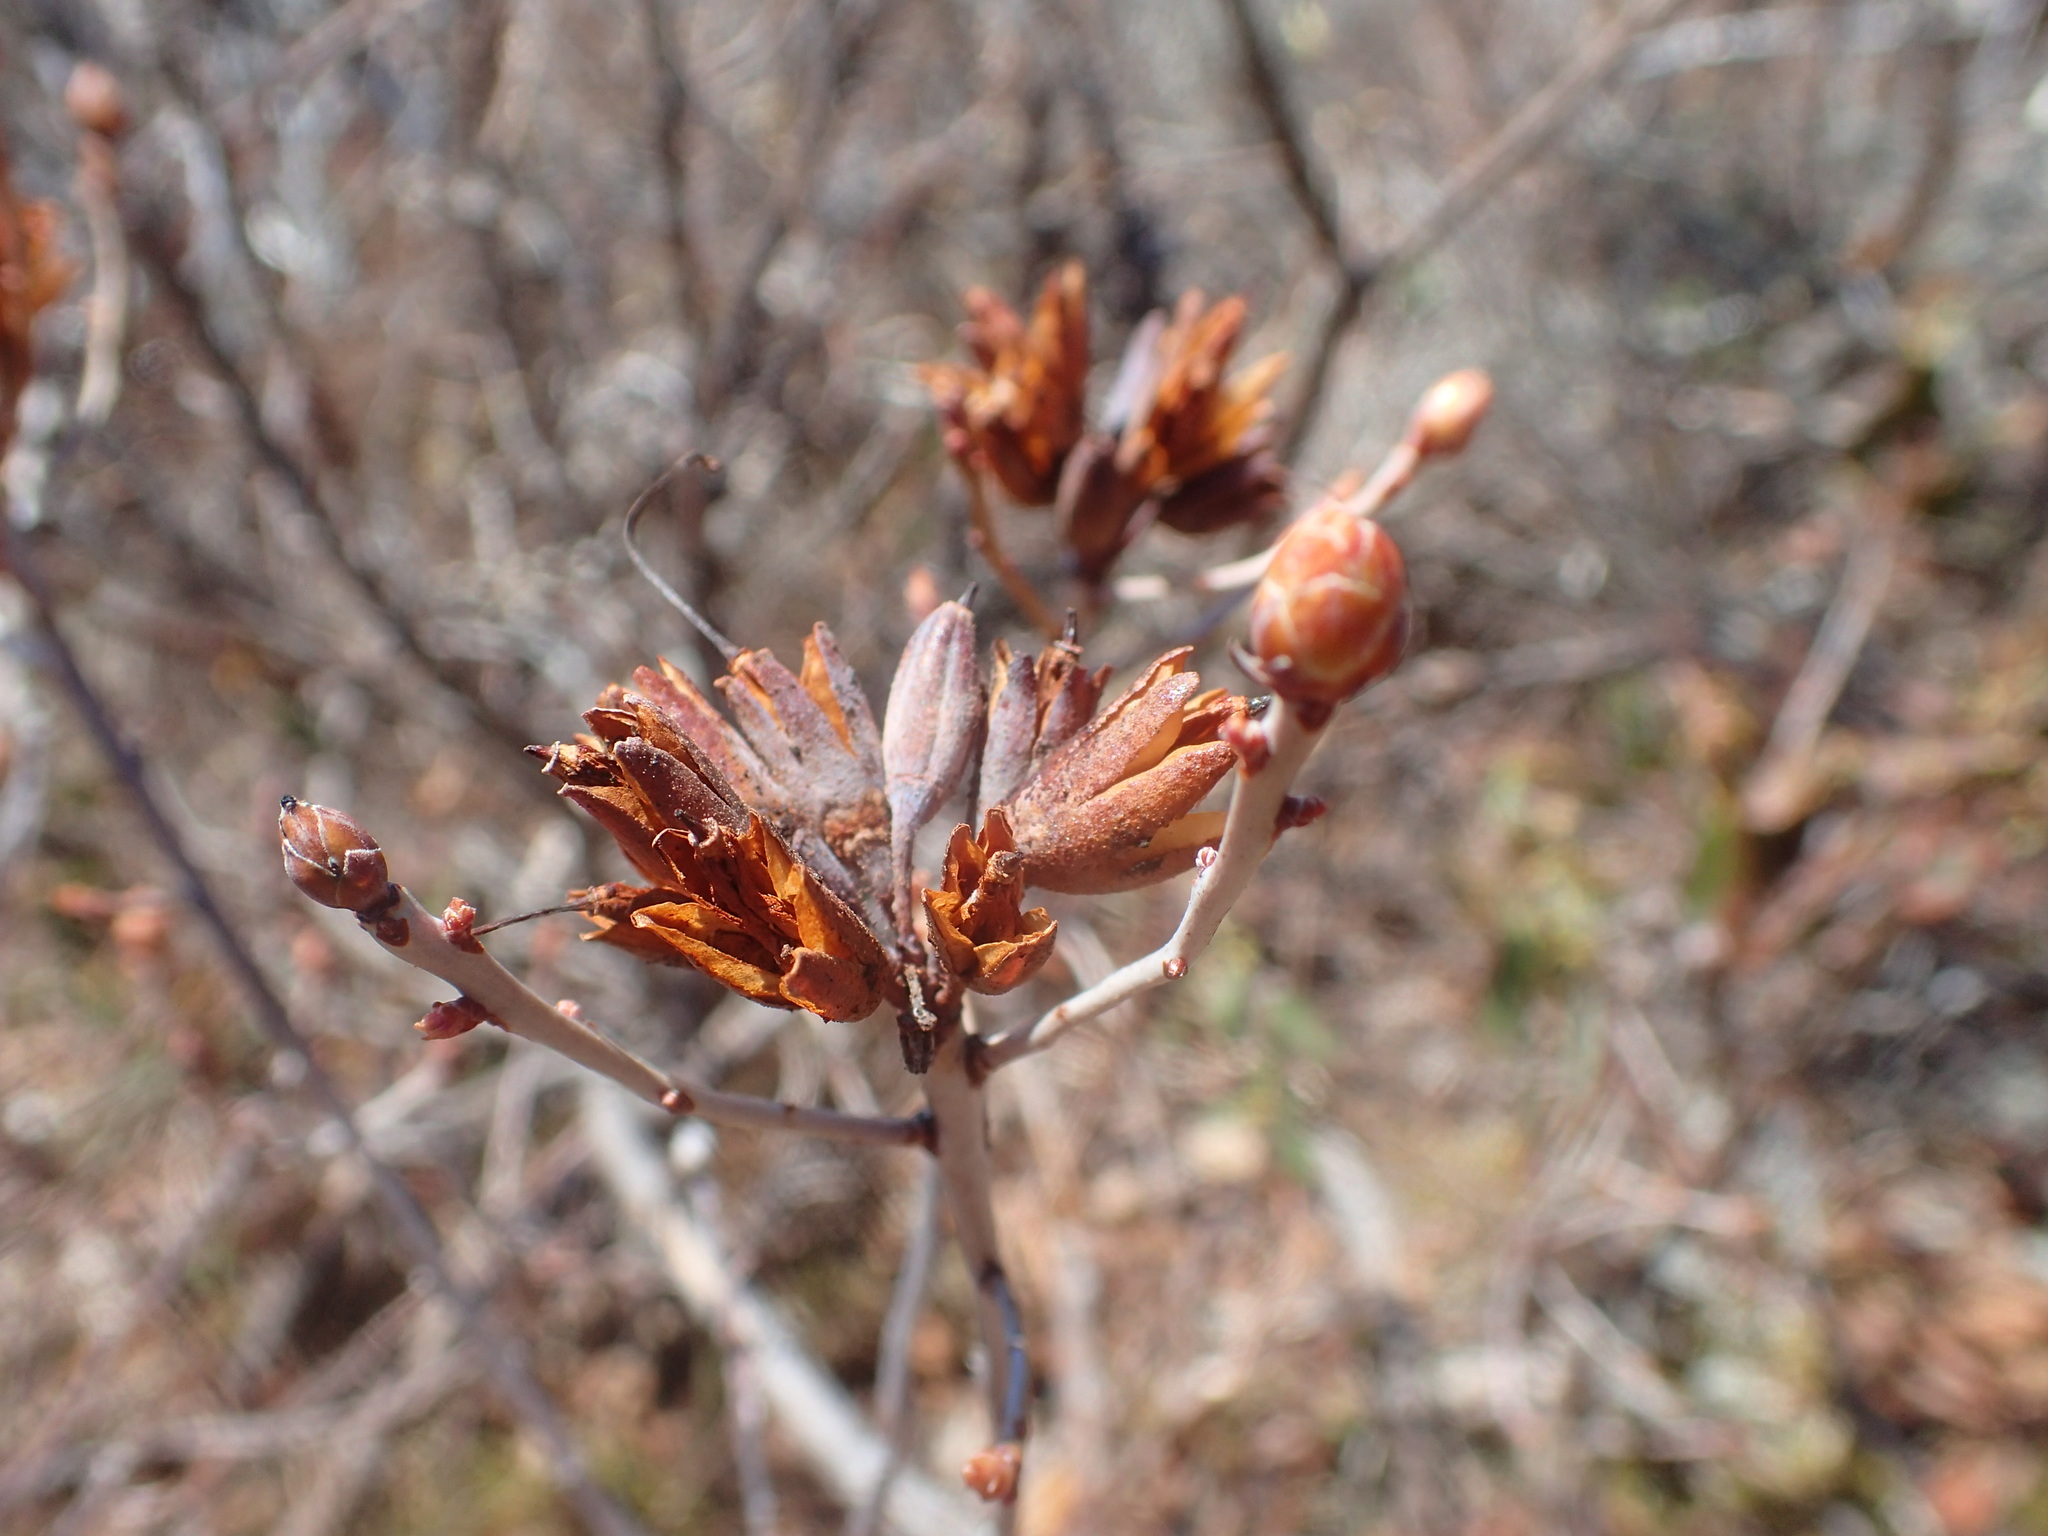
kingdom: Plantae
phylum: Tracheophyta
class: Magnoliopsida
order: Ericales
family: Ericaceae
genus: Rhododendron
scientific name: Rhododendron canadense
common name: Rhodora
